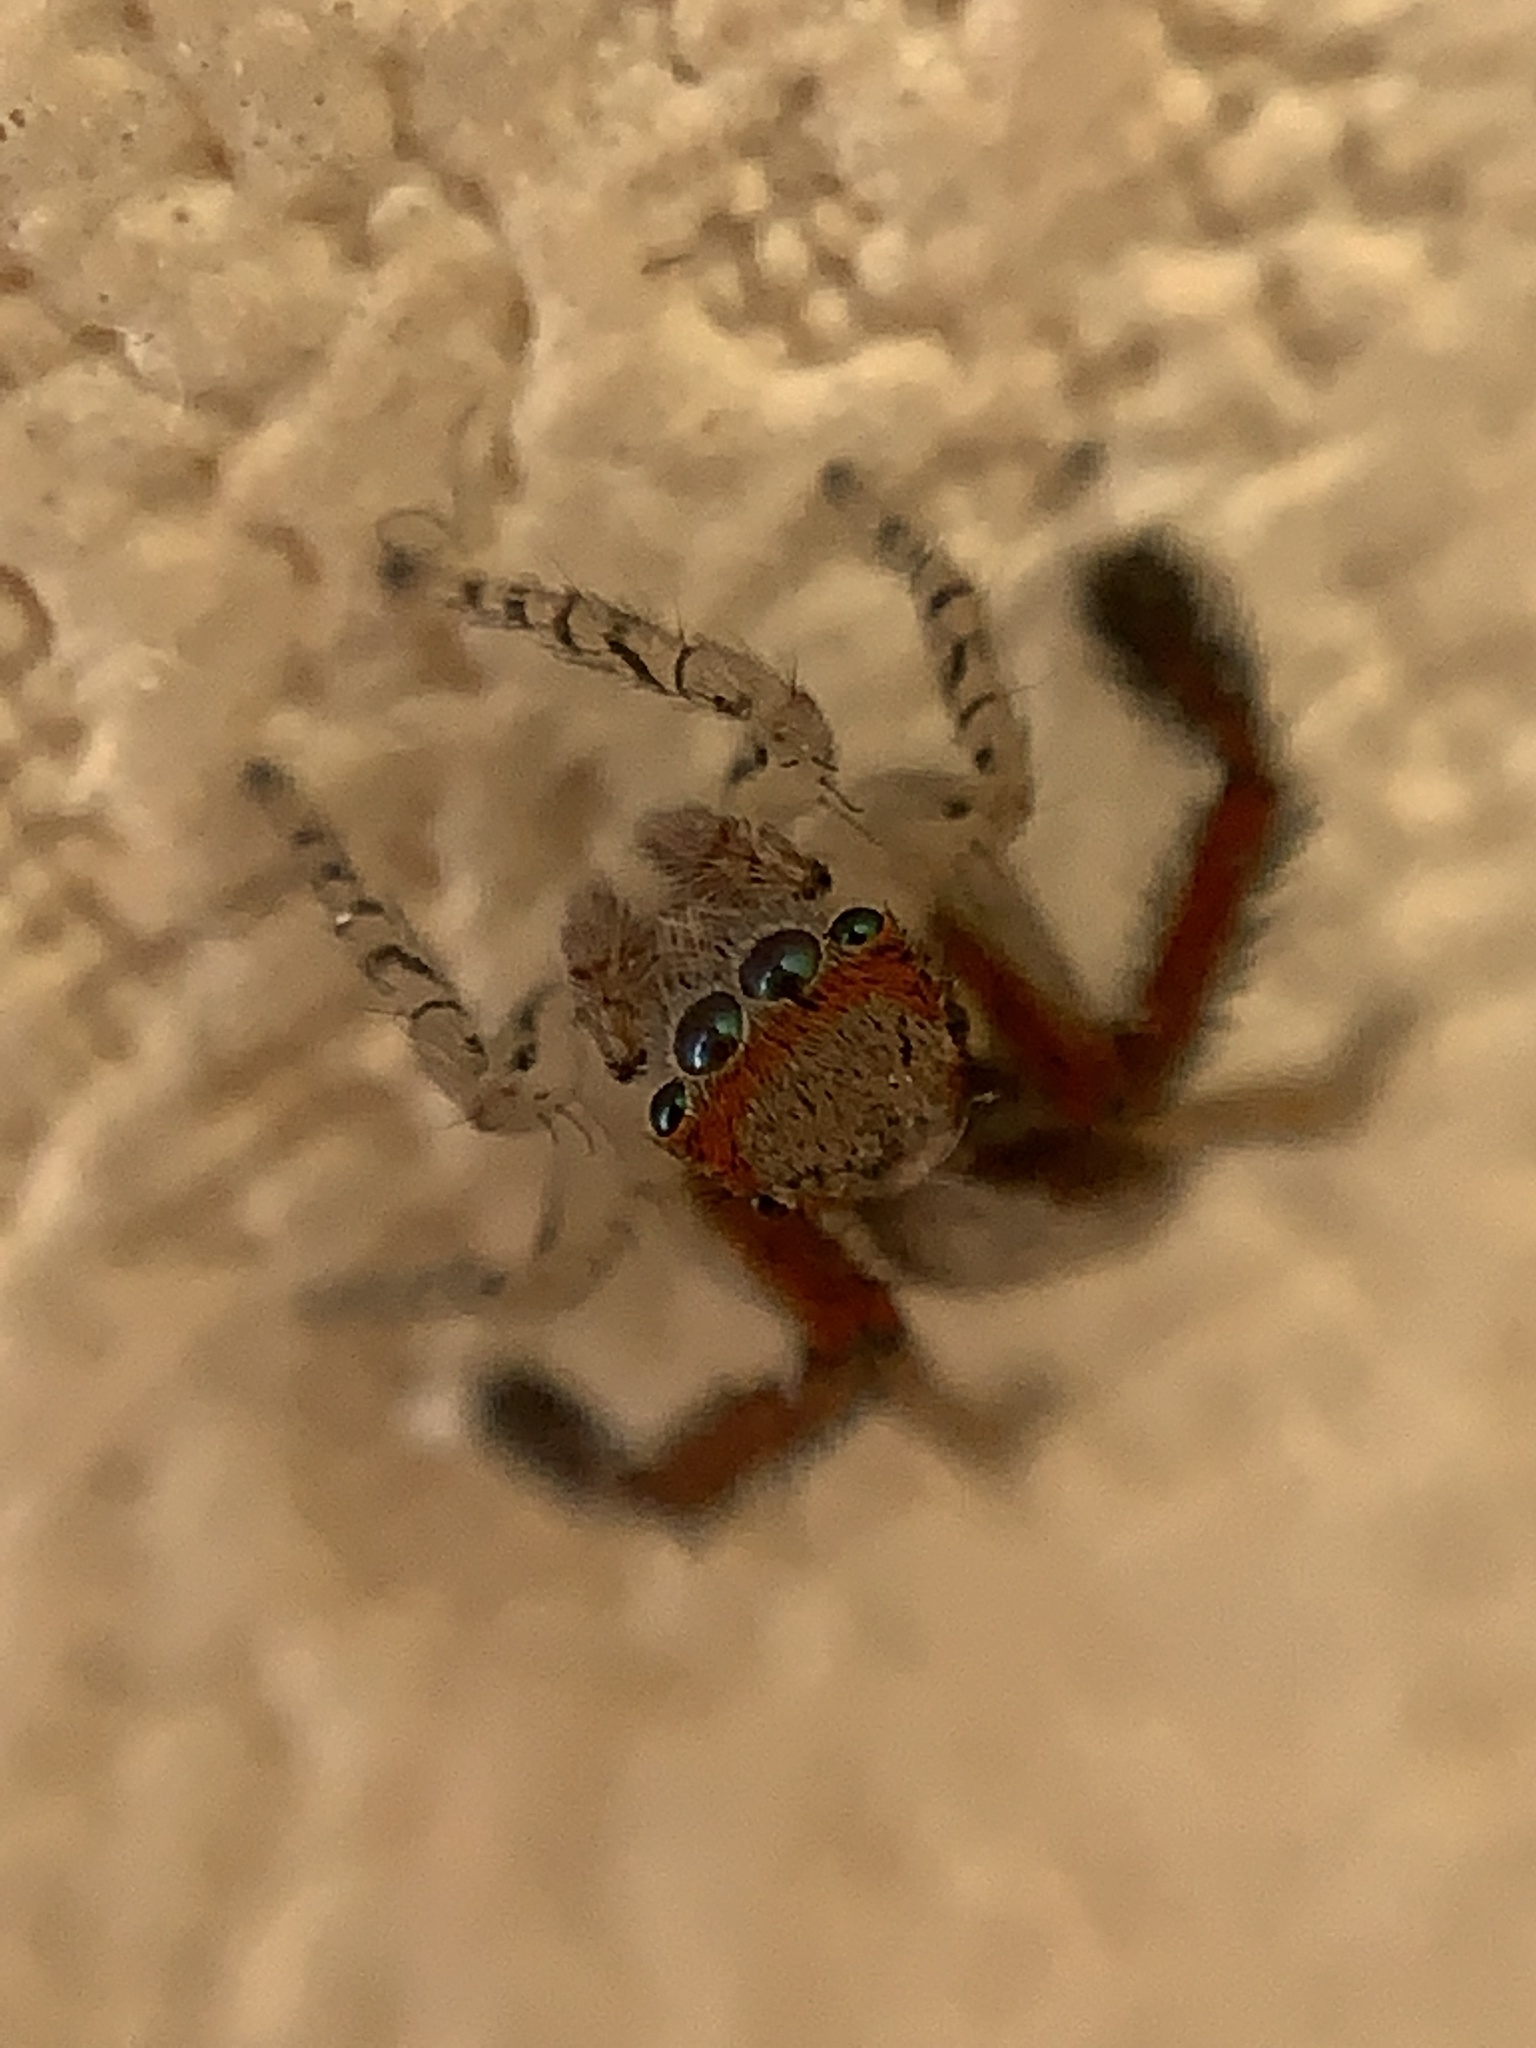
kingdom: Animalia
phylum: Arthropoda
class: Arachnida
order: Araneae
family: Salticidae
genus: Saitis
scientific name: Saitis barbipes
